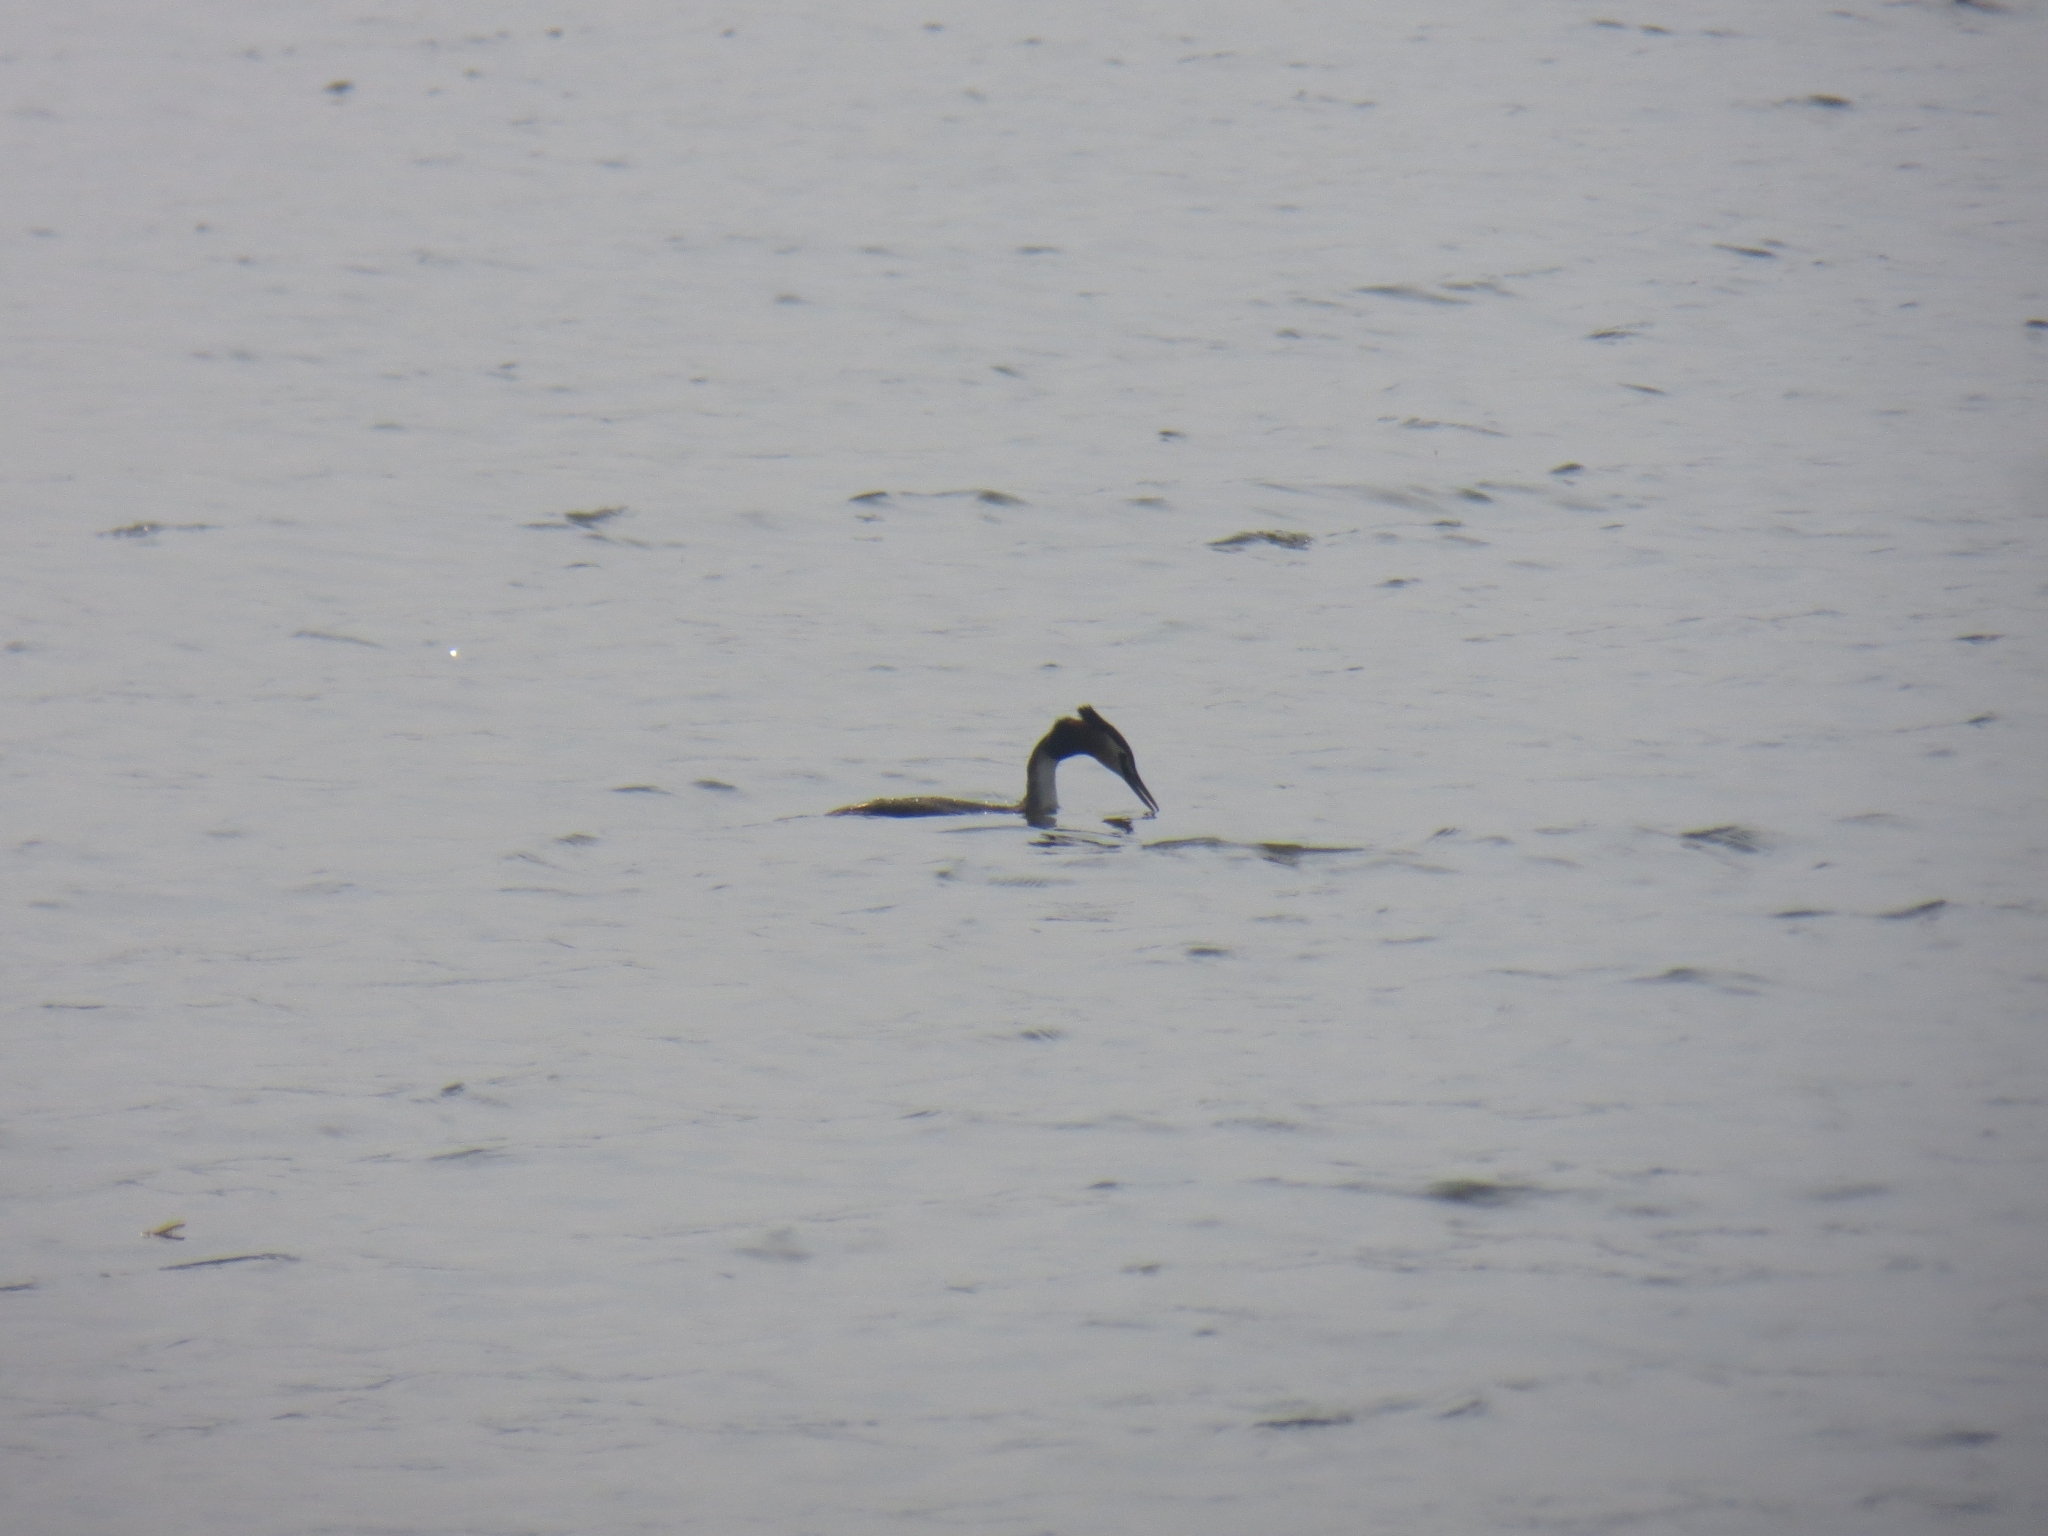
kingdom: Animalia
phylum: Chordata
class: Aves
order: Podicipediformes
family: Podicipedidae
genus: Podiceps
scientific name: Podiceps cristatus
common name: Great crested grebe
